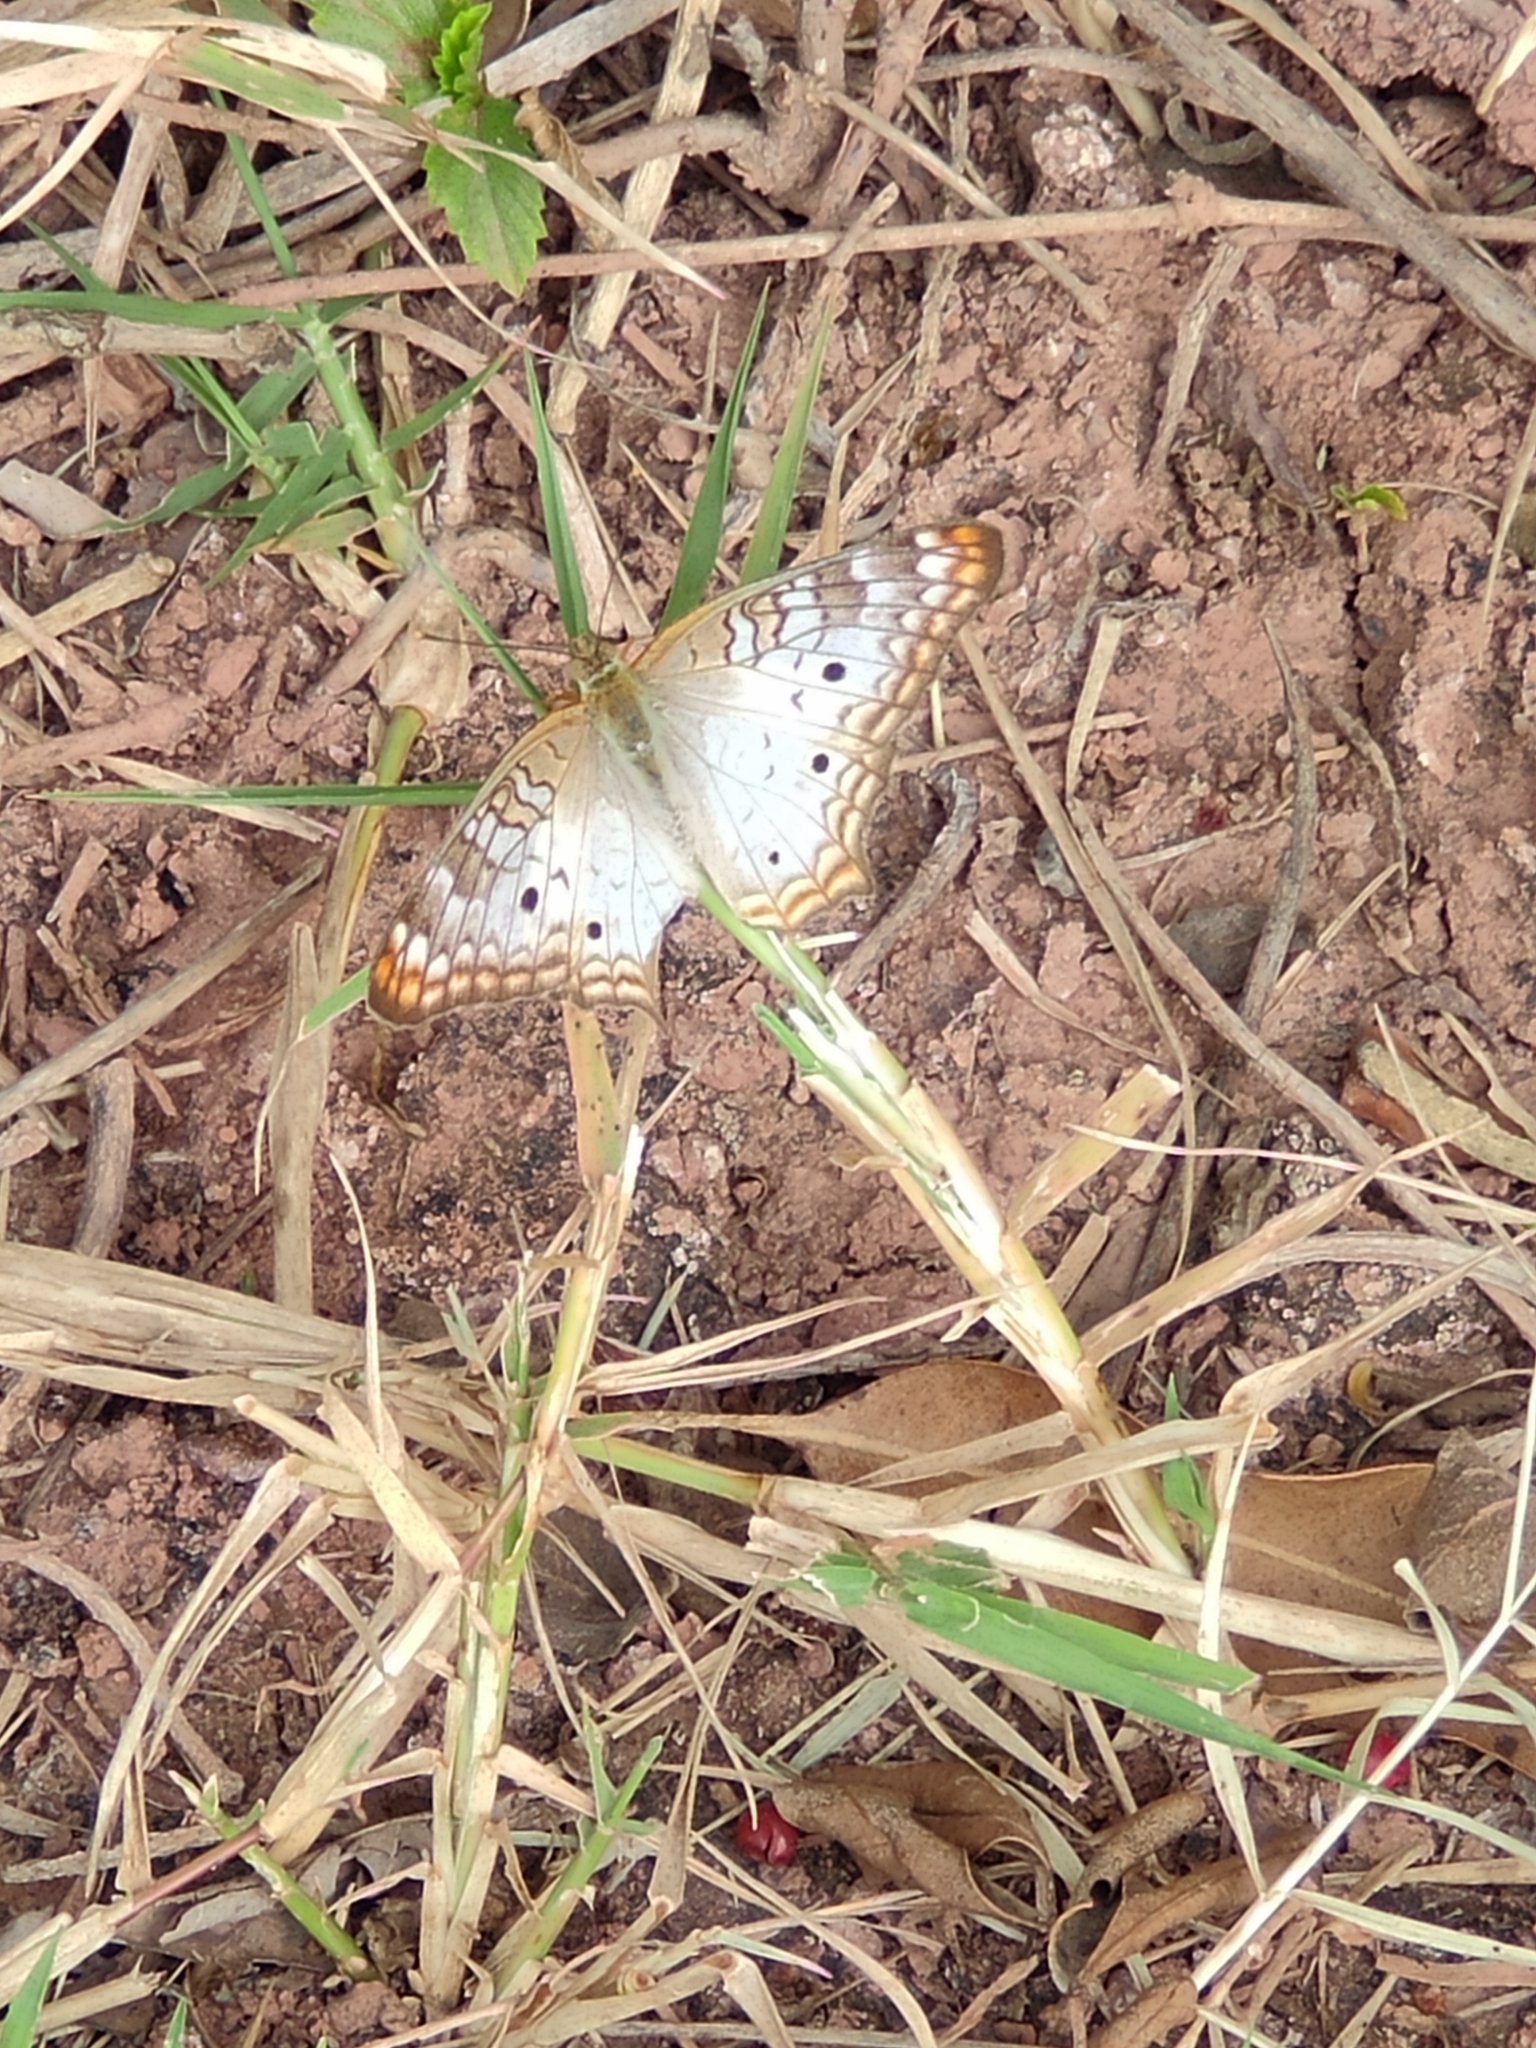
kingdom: Animalia
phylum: Arthropoda
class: Insecta
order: Lepidoptera
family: Nymphalidae
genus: Anartia
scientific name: Anartia jatrophae
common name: White peacock
